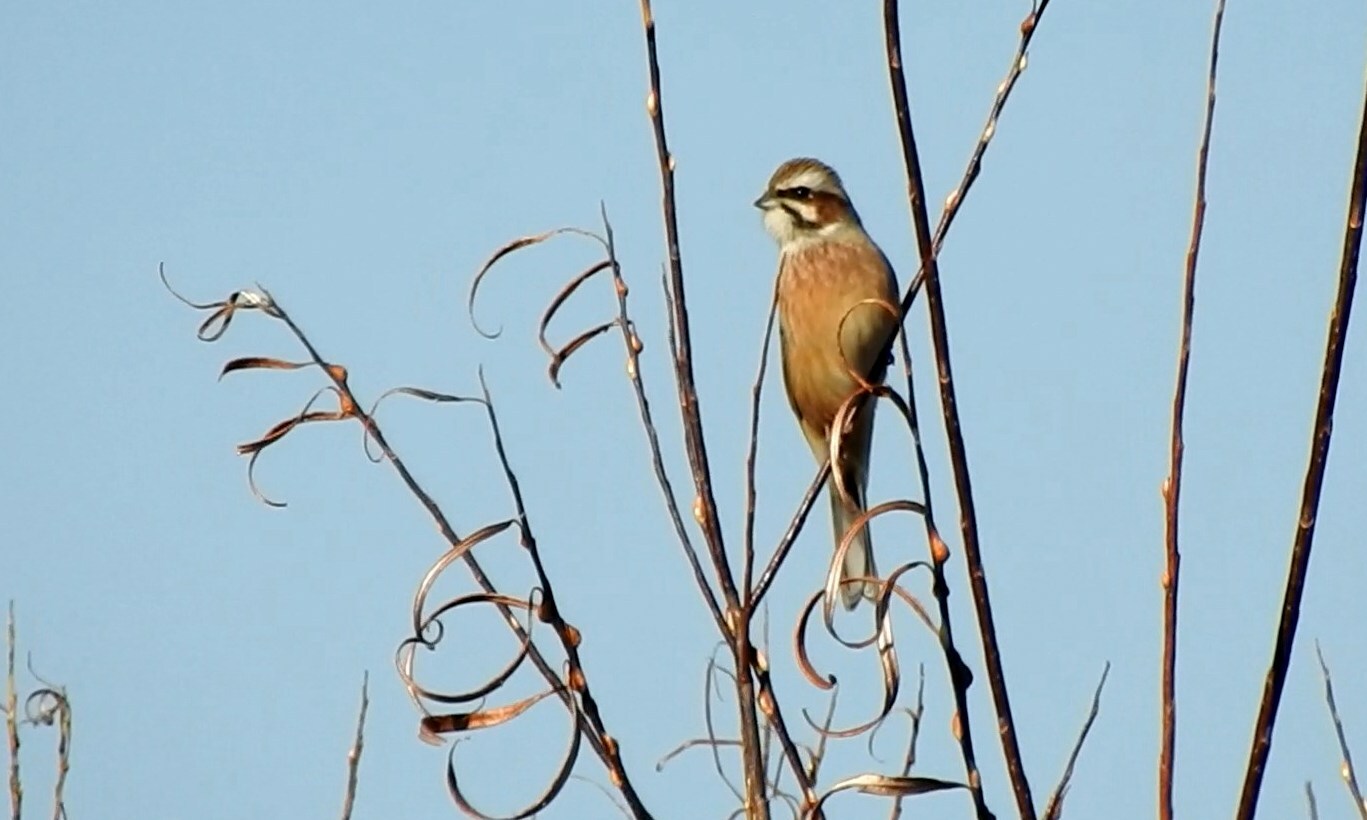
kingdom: Animalia
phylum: Chordata
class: Aves
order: Passeriformes
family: Emberizidae
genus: Emberiza
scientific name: Emberiza cioides
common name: Meadow bunting
